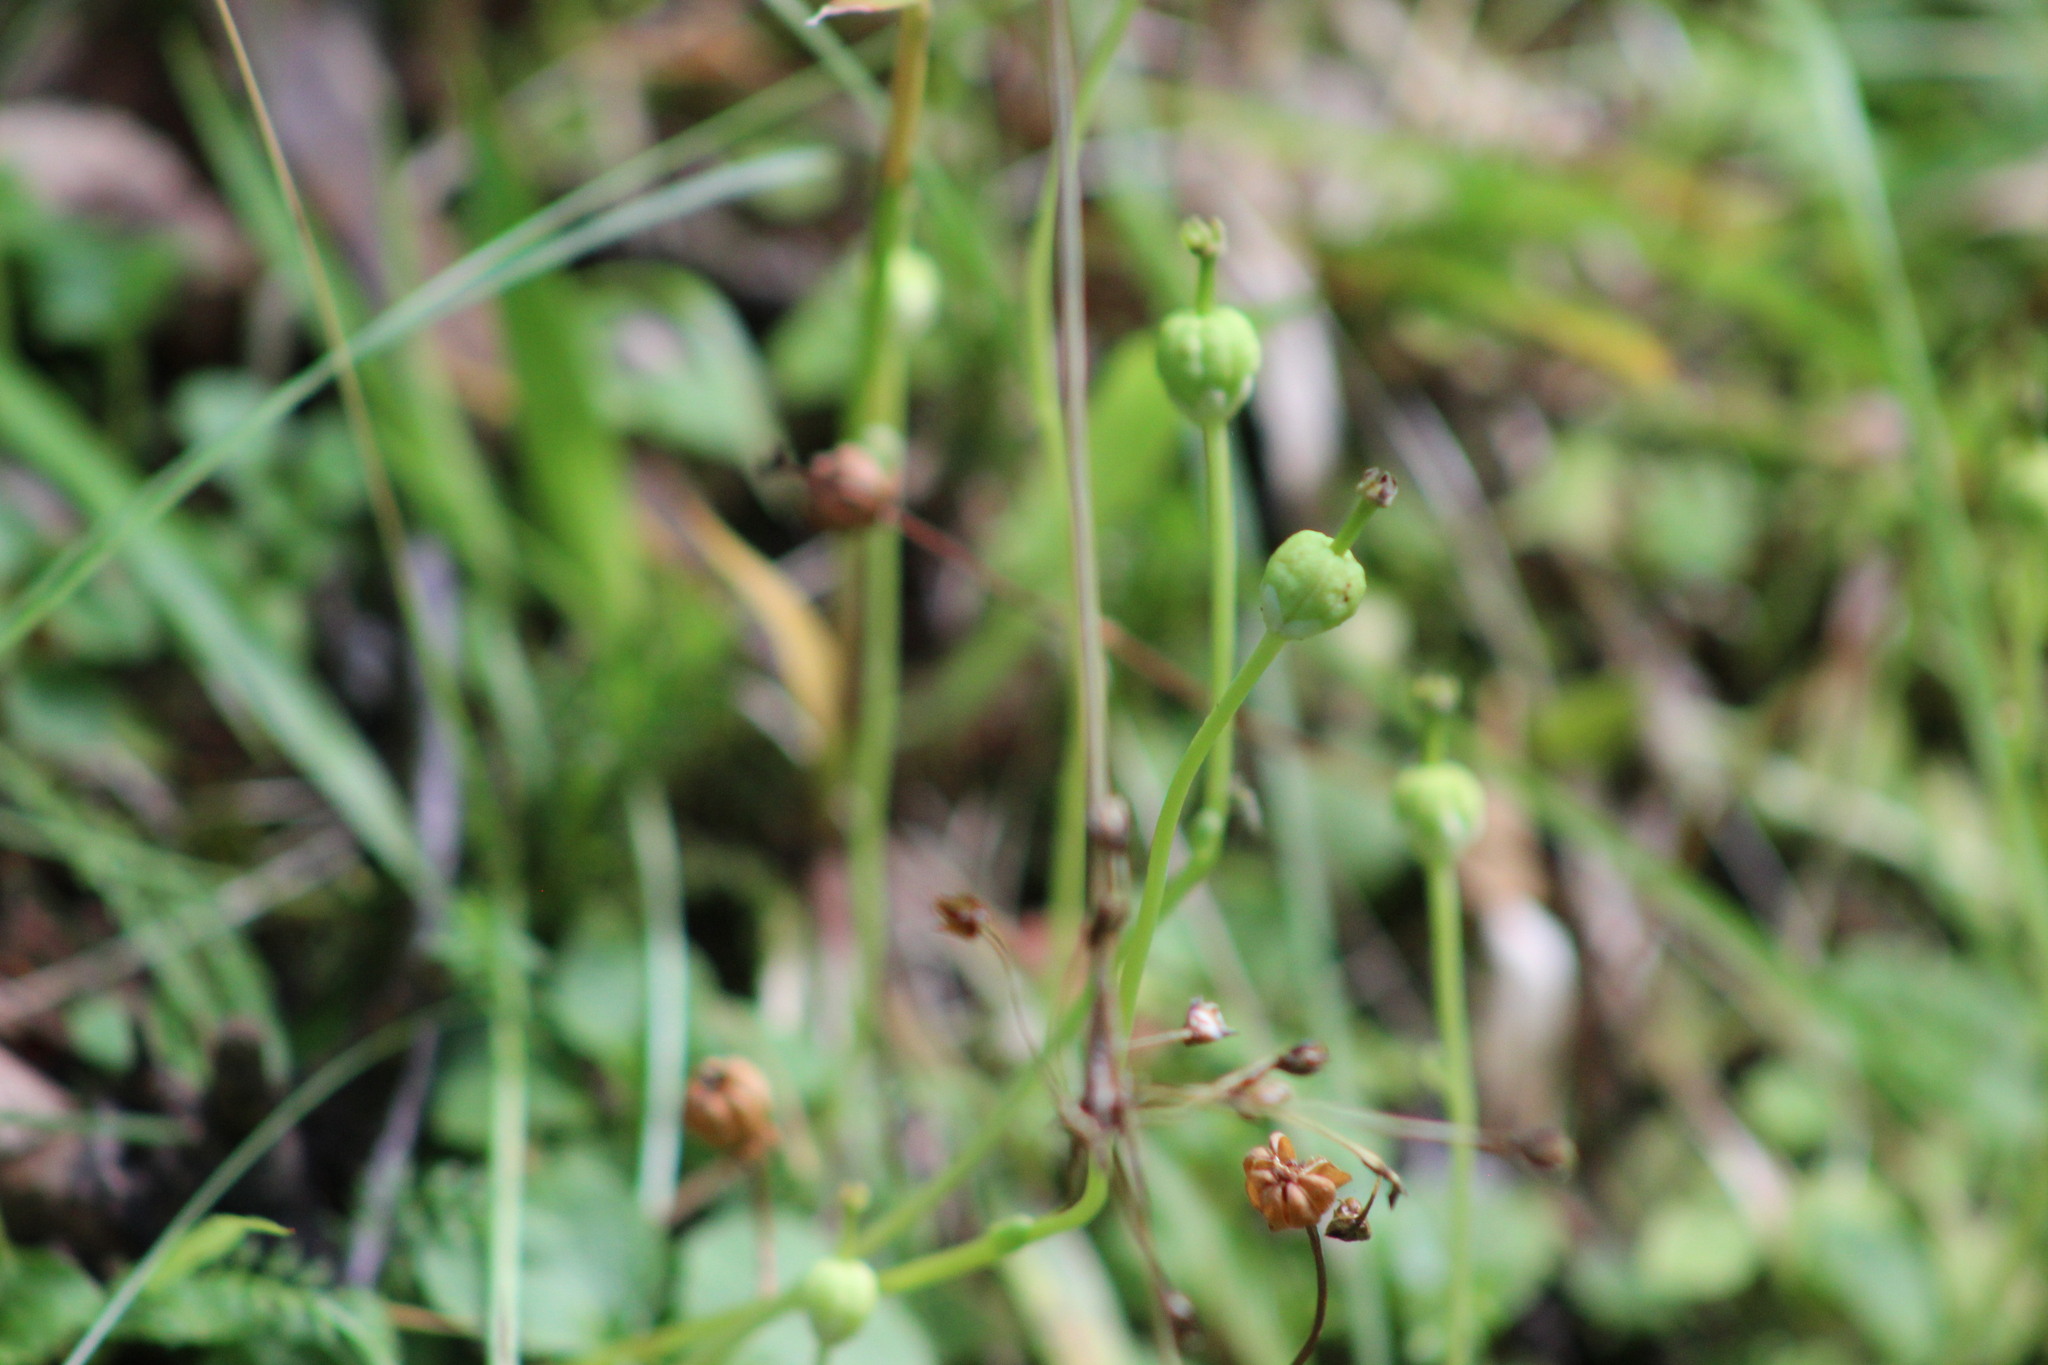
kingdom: Plantae
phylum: Tracheophyta
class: Magnoliopsida
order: Ericales
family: Ericaceae
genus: Moneses
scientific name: Moneses uniflora
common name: One-flowered wintergreen
